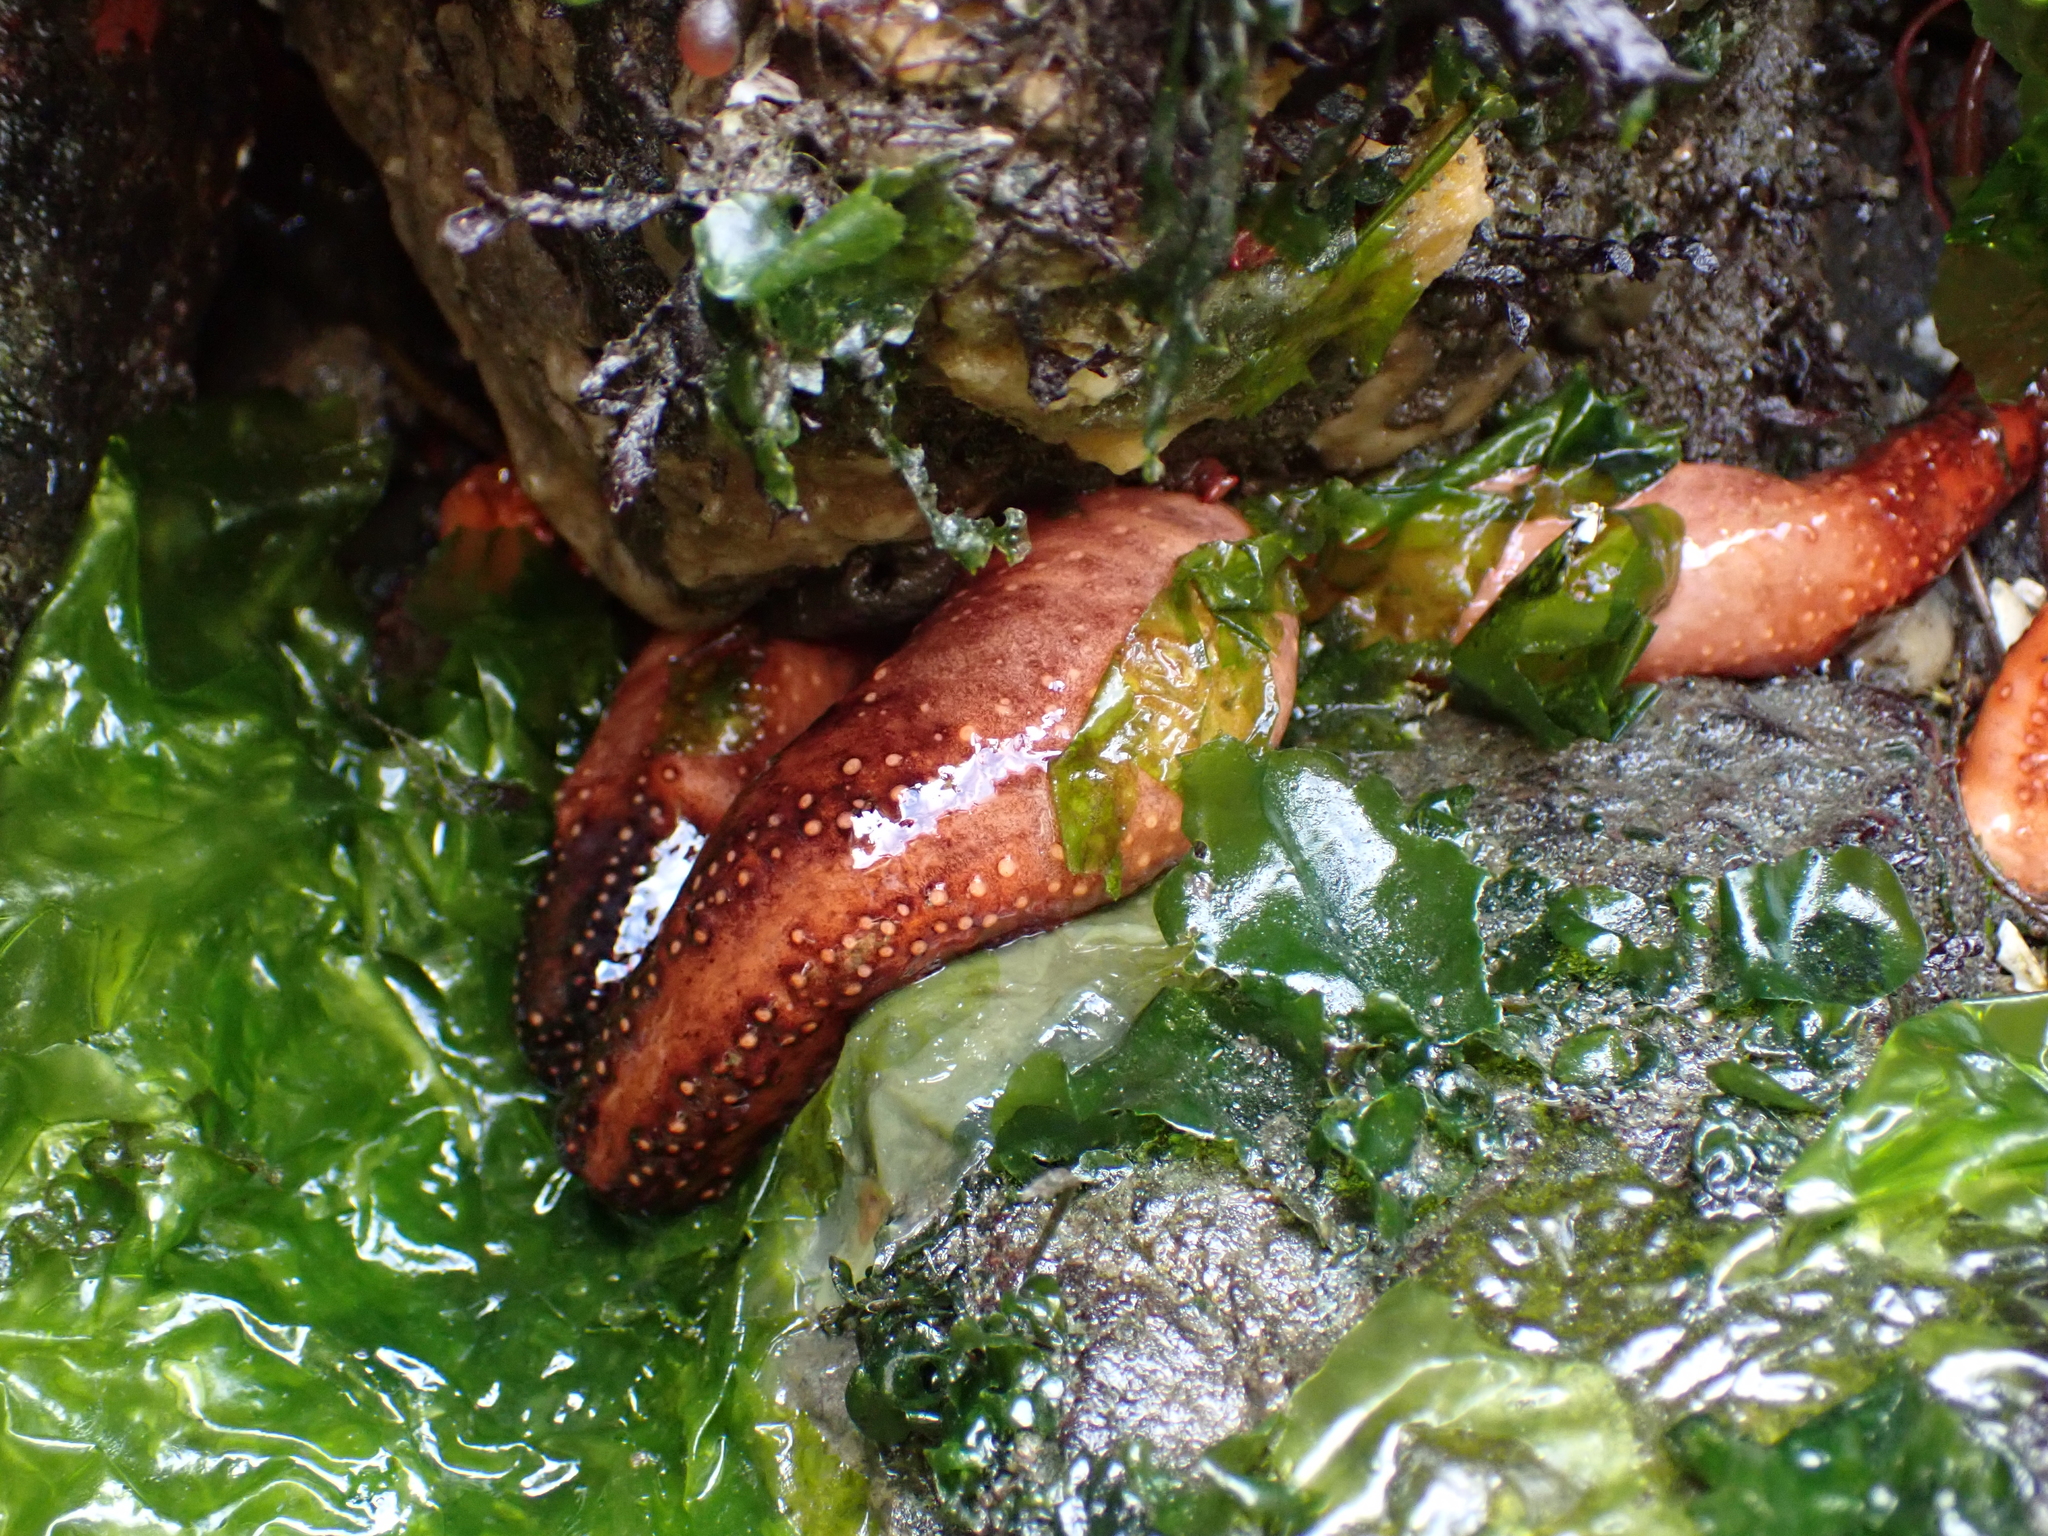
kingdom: Animalia
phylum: Echinodermata
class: Holothuroidea
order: Dendrochirotida
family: Cucumariidae
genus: Cucumaria
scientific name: Cucumaria miniata
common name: Orange sea cucumber
